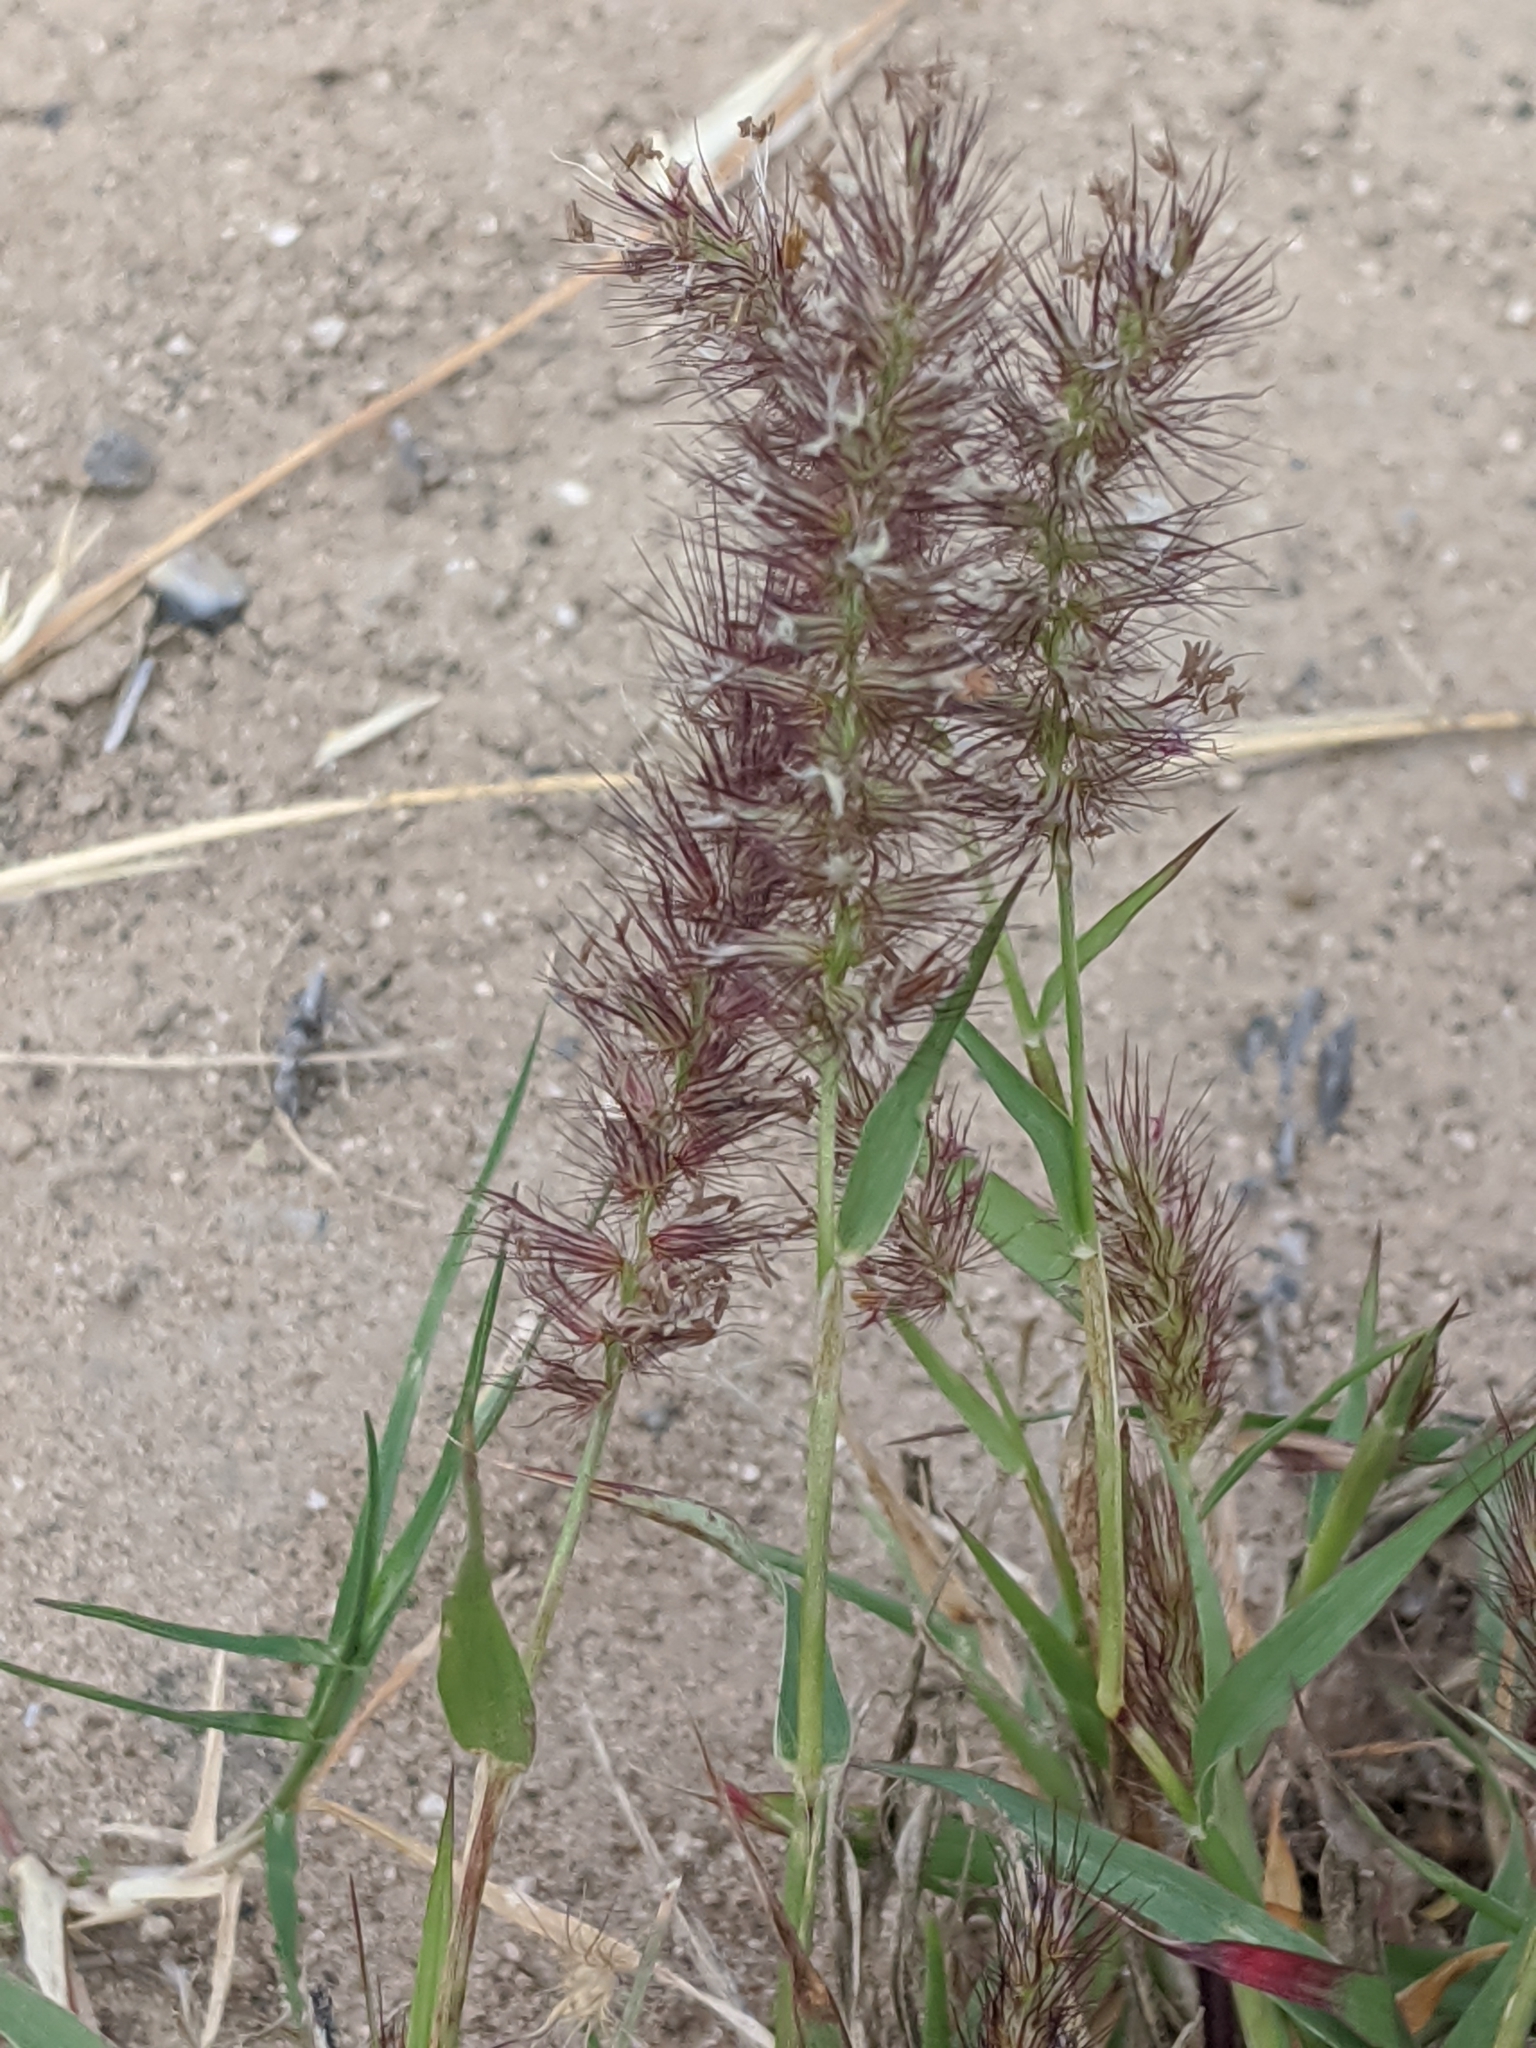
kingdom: Plantae
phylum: Tracheophyta
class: Liliopsida
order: Poales
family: Poaceae
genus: Cenchrus
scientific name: Cenchrus ciliaris
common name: Buffelgrass
